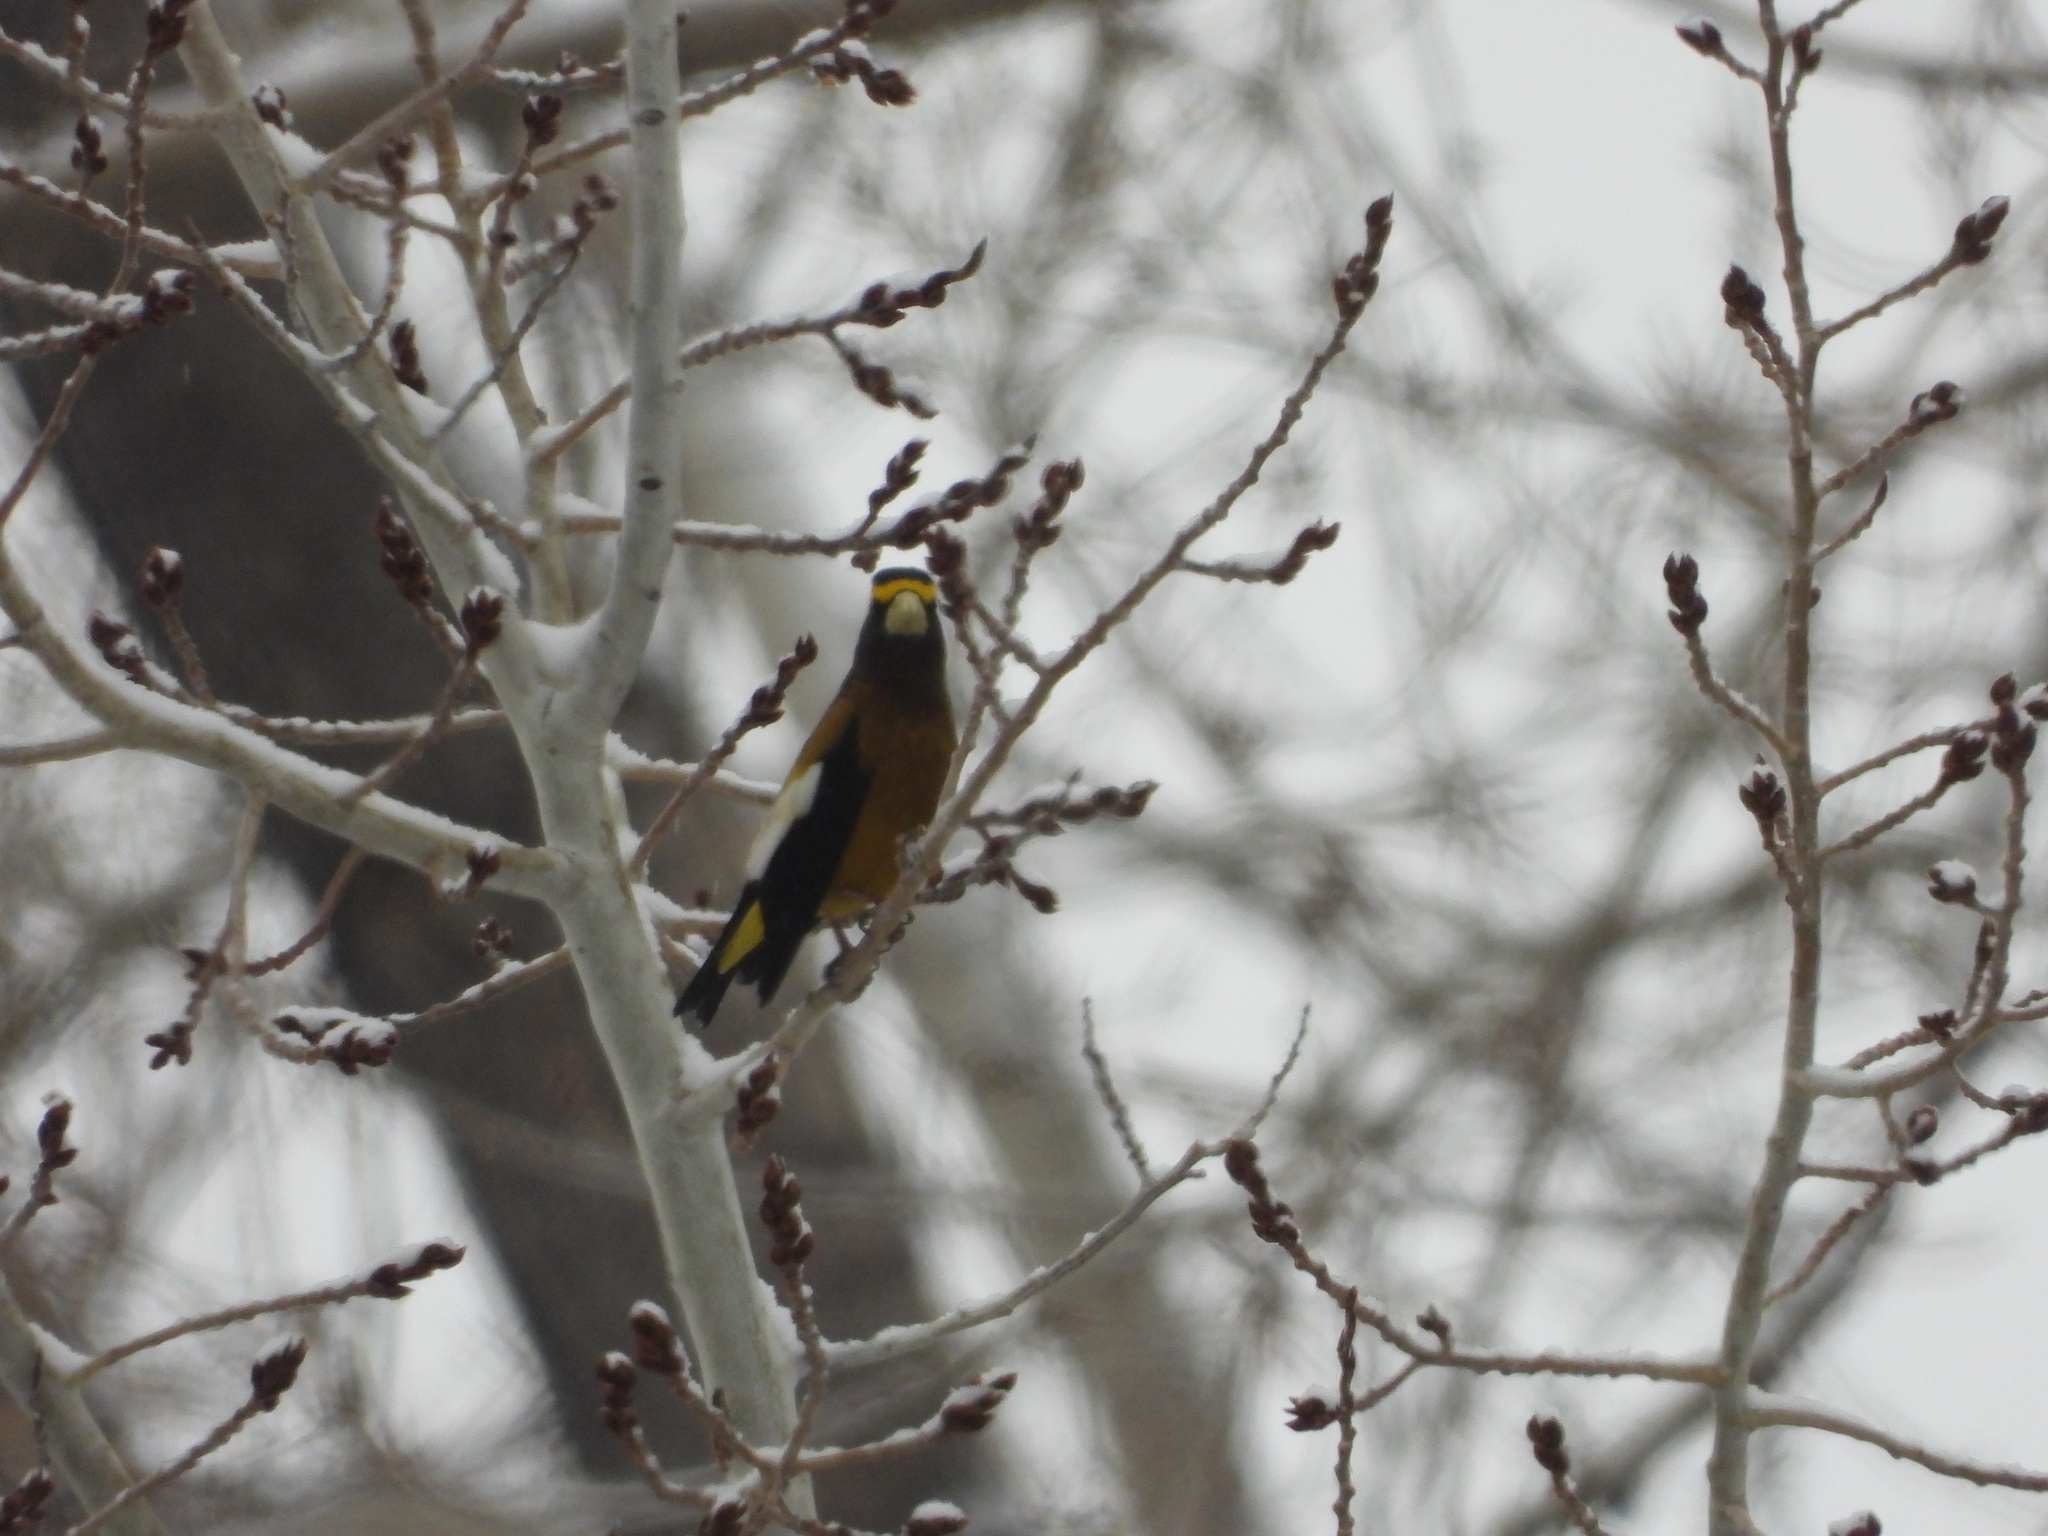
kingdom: Animalia
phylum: Chordata
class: Aves
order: Passeriformes
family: Fringillidae
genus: Hesperiphona
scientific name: Hesperiphona vespertina
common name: Evening grosbeak
